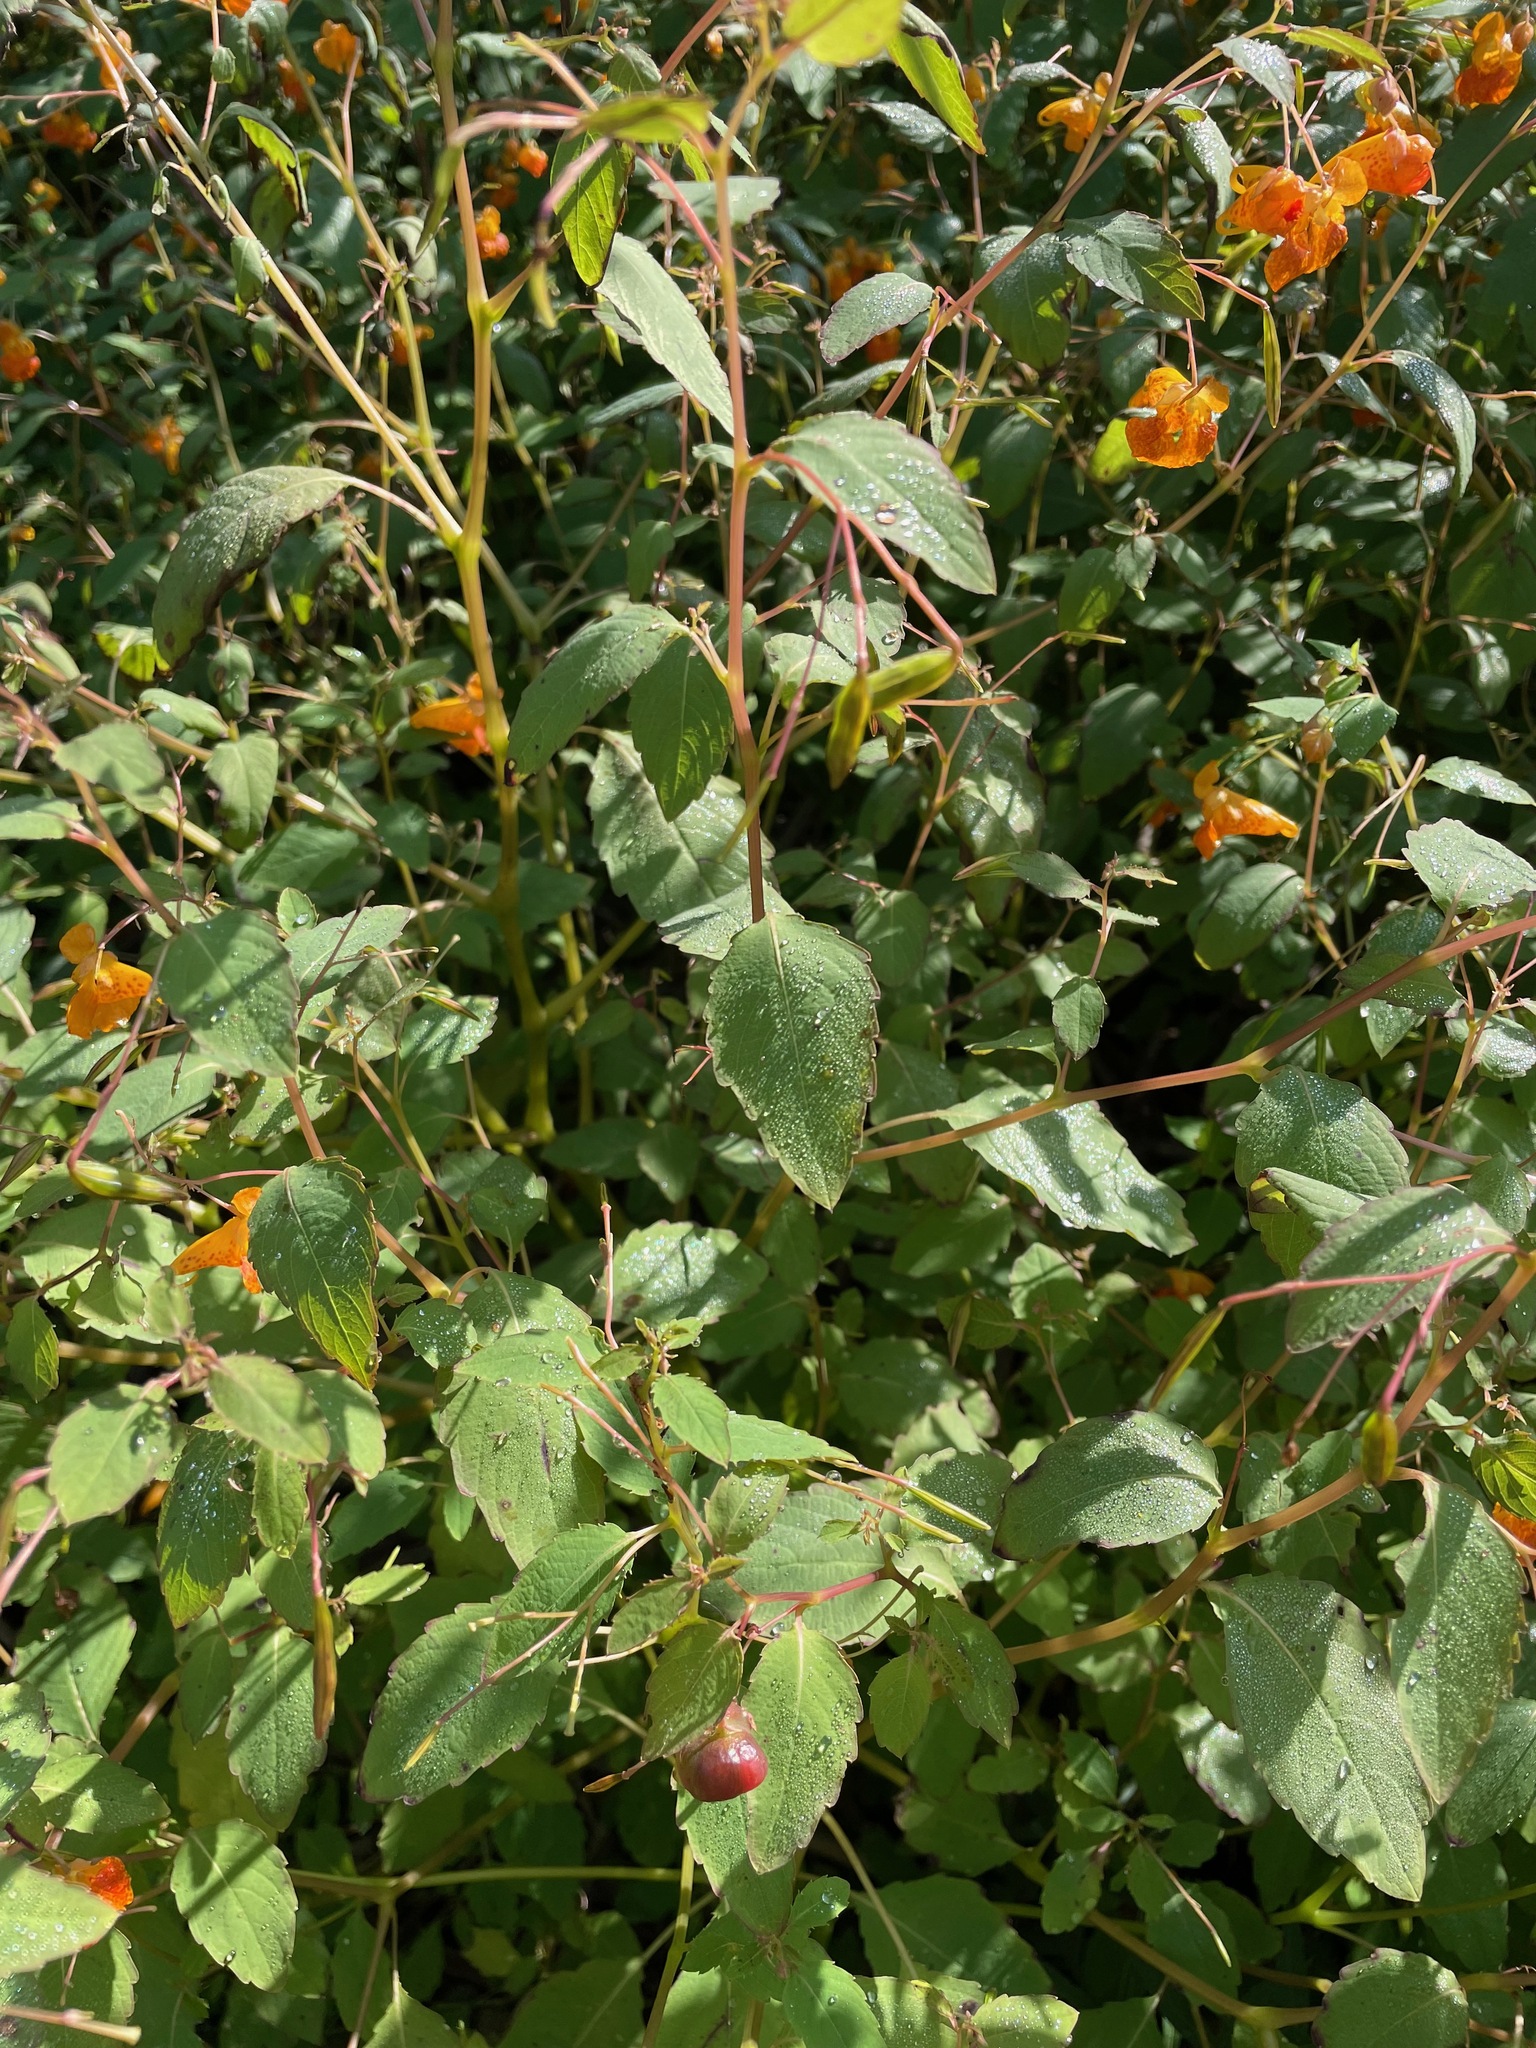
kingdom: Animalia
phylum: Arthropoda
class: Insecta
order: Diptera
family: Cecidomyiidae
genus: Schizomyia
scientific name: Schizomyia impatientis
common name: Jewelweed gall midge
